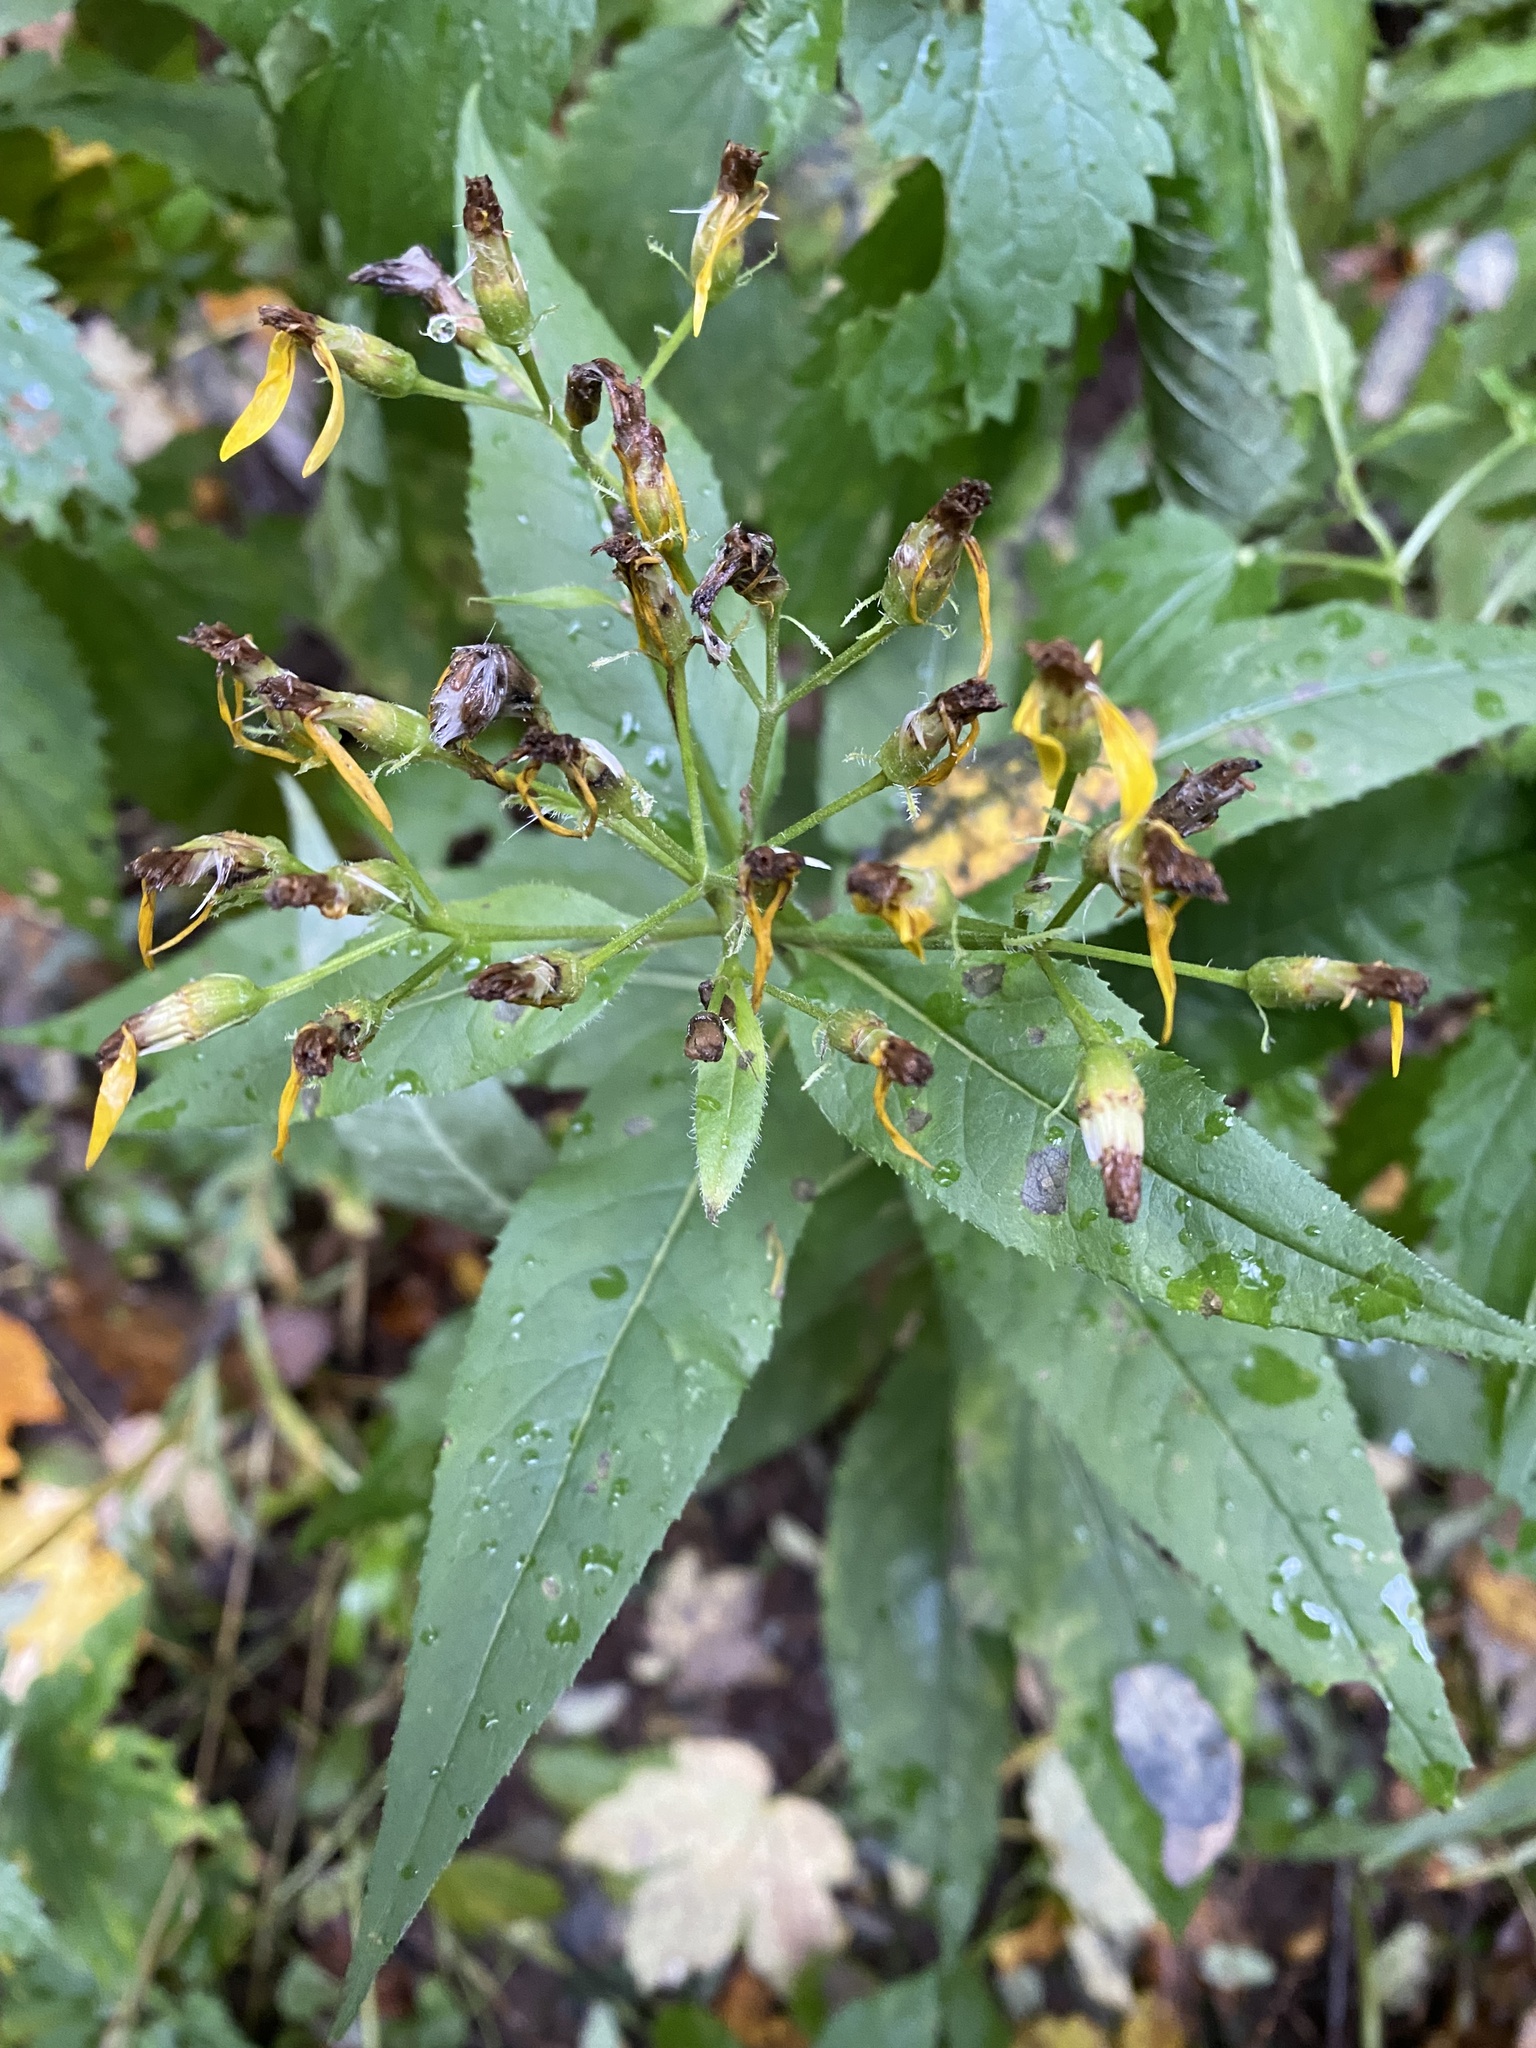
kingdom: Plantae
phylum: Tracheophyta
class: Magnoliopsida
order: Asterales
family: Asteraceae
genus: Senecio
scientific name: Senecio propinquus
